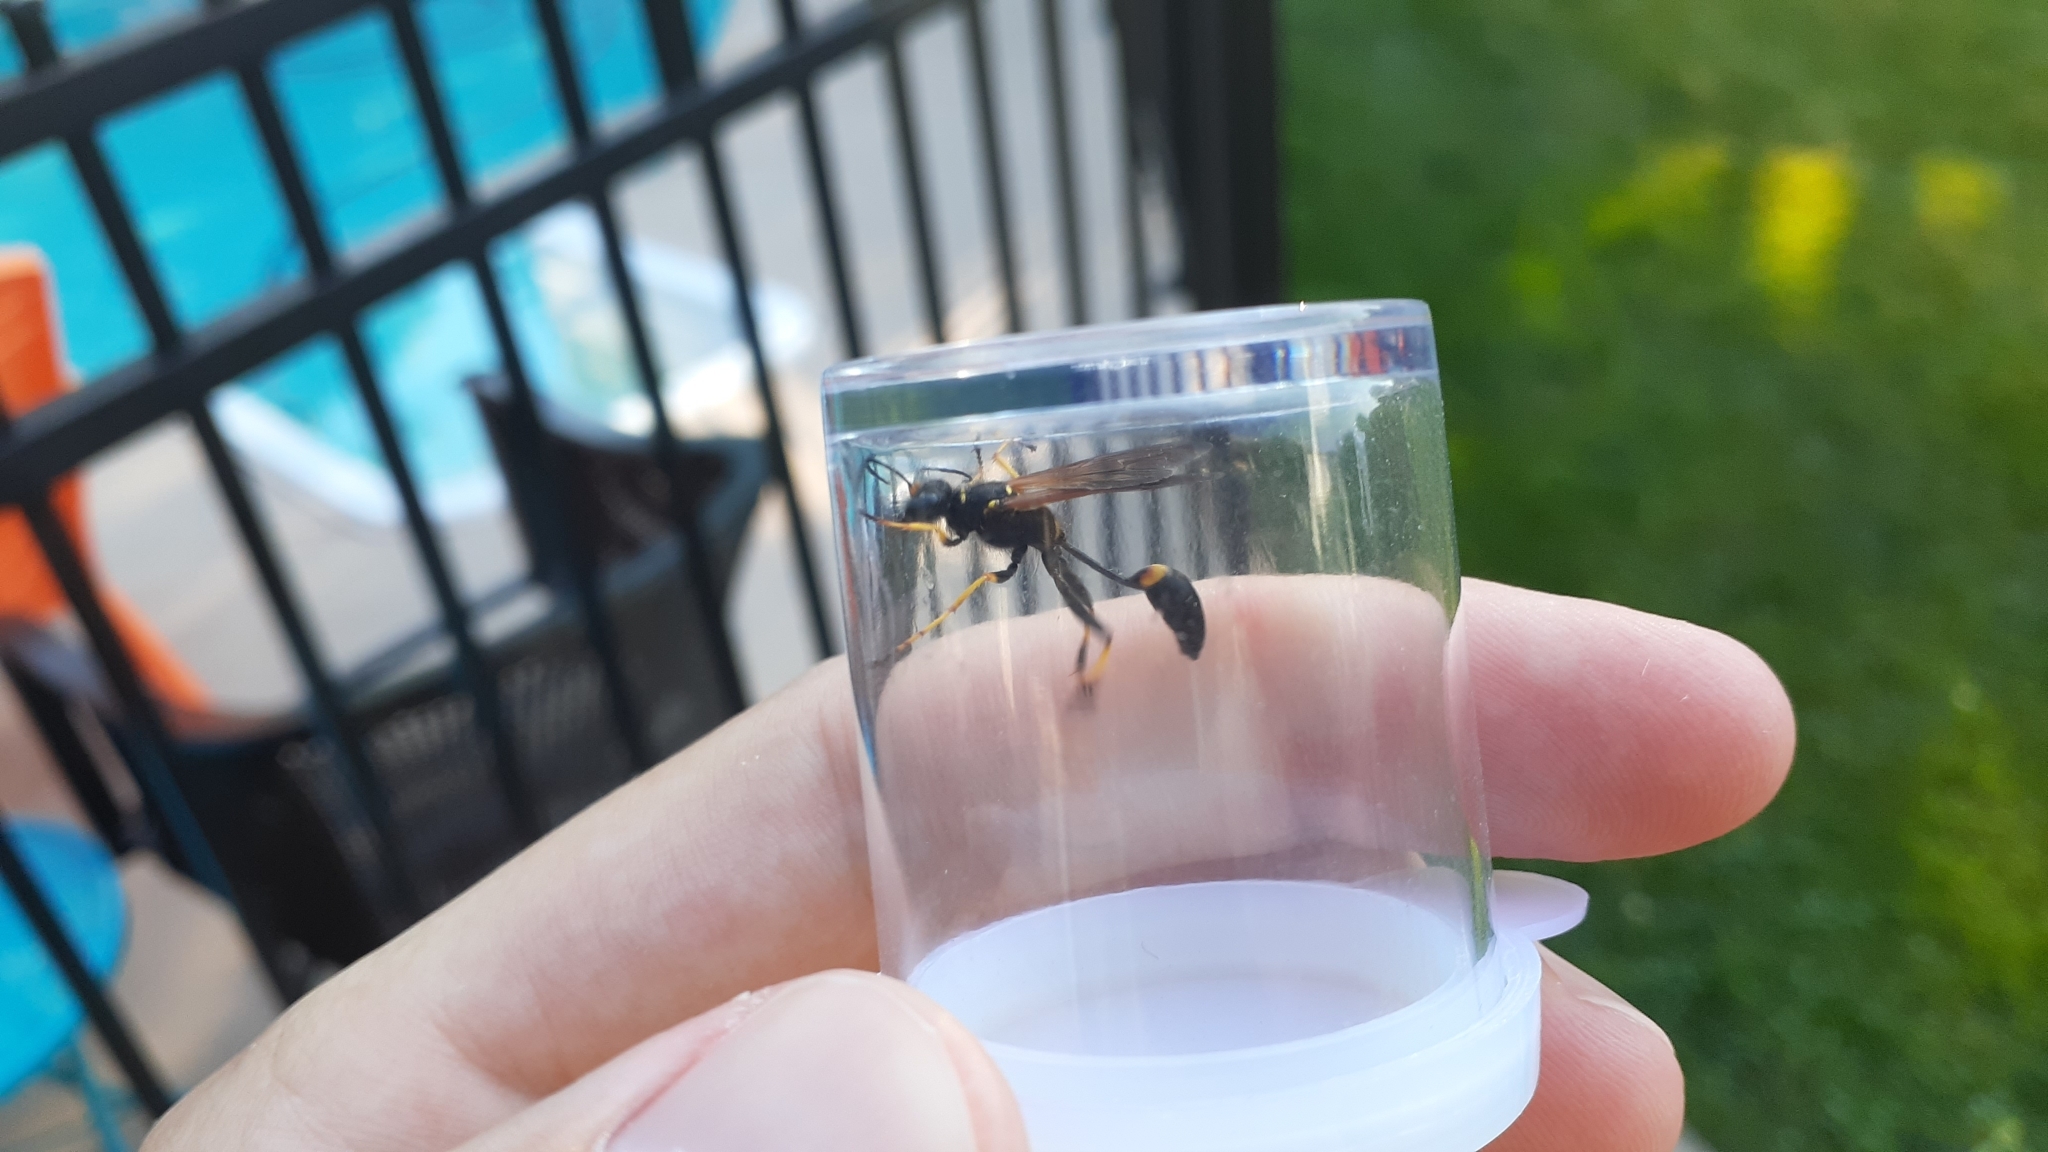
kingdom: Animalia
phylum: Arthropoda
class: Insecta
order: Hymenoptera
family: Sphecidae
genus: Sceliphron
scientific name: Sceliphron caementarium
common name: Mud dauber
